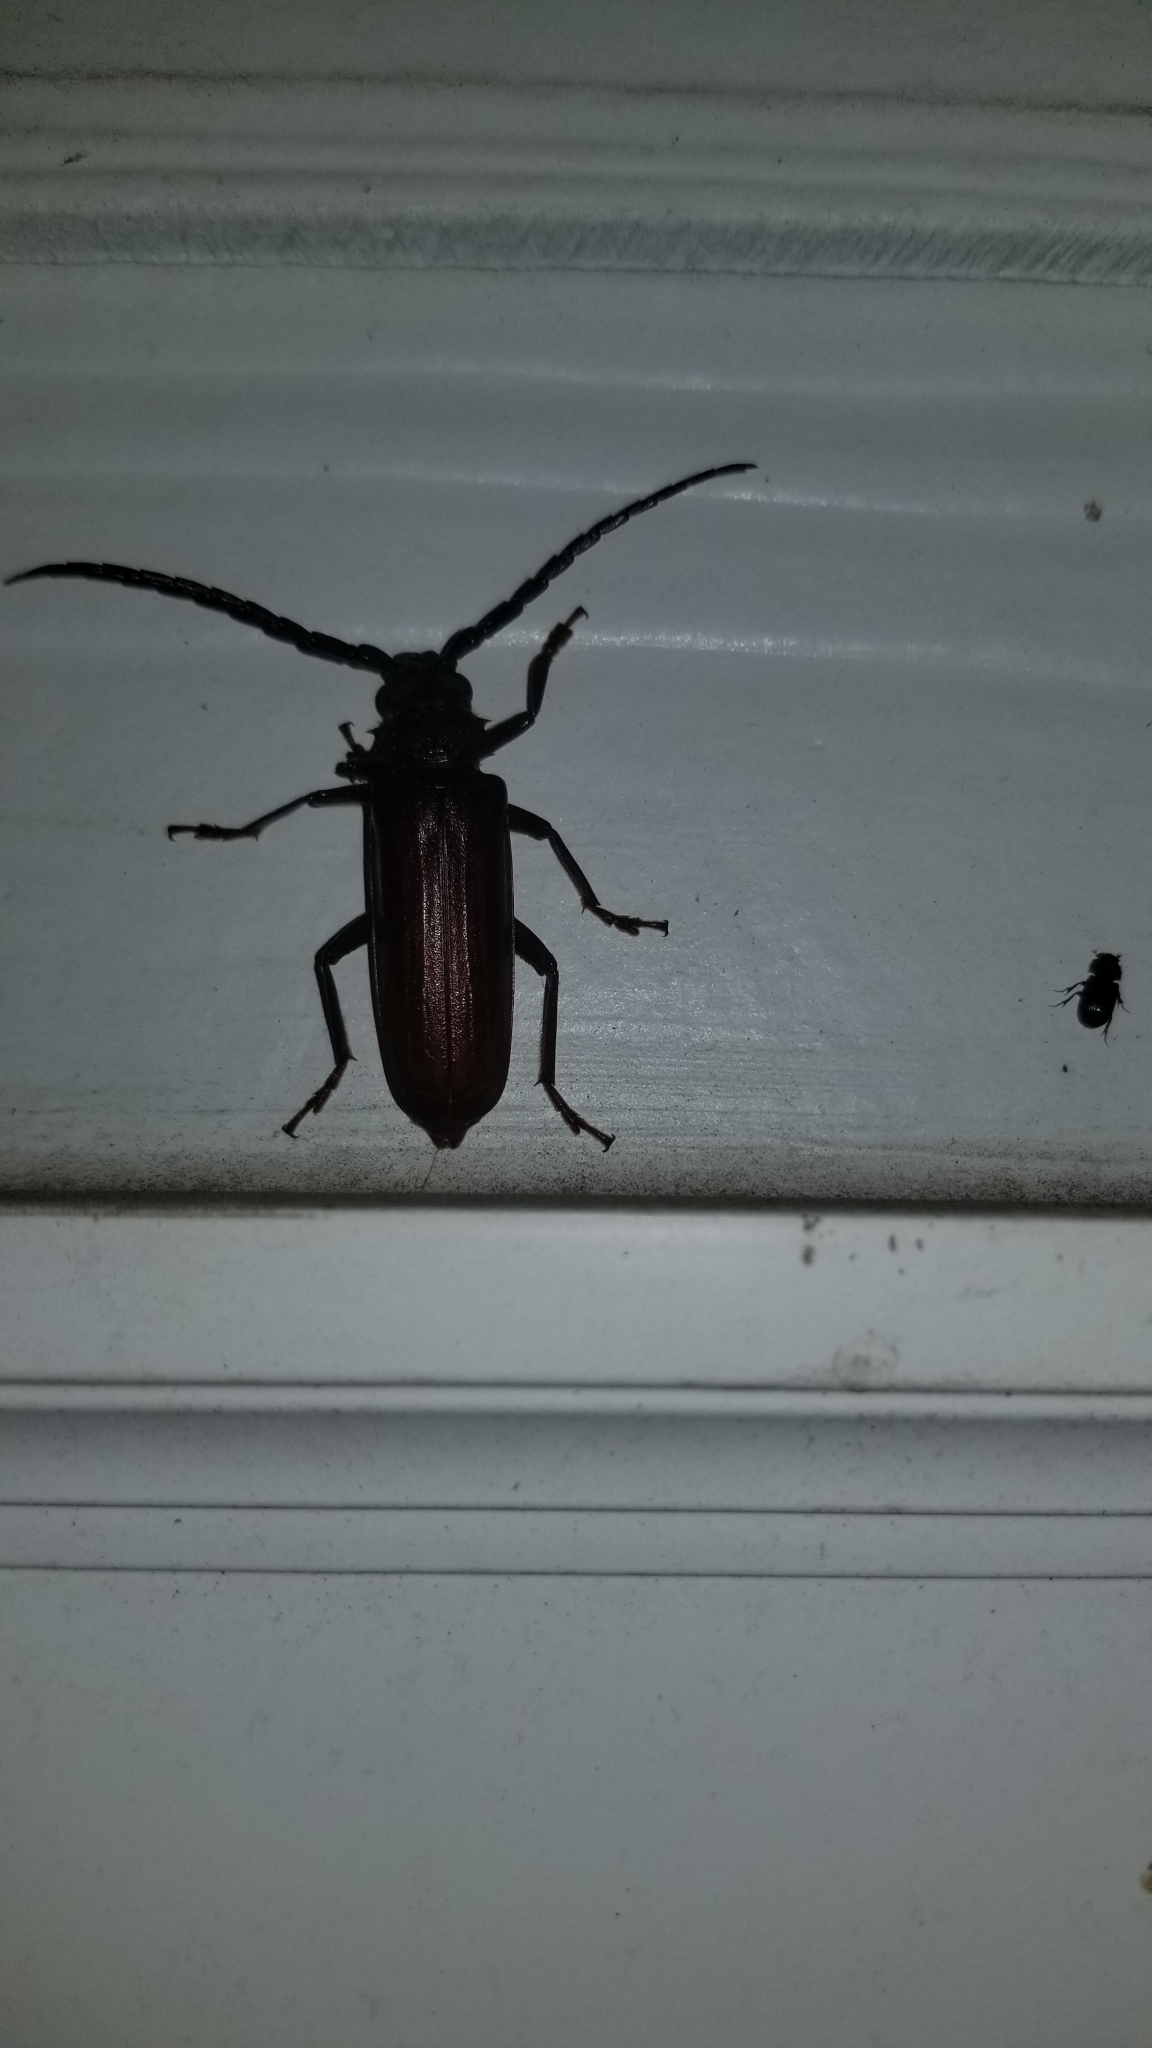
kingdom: Animalia
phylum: Arthropoda
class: Insecta
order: Coleoptera
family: Cerambycidae
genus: Orthosoma
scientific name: Orthosoma brunneum
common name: Brown prionid beetle
